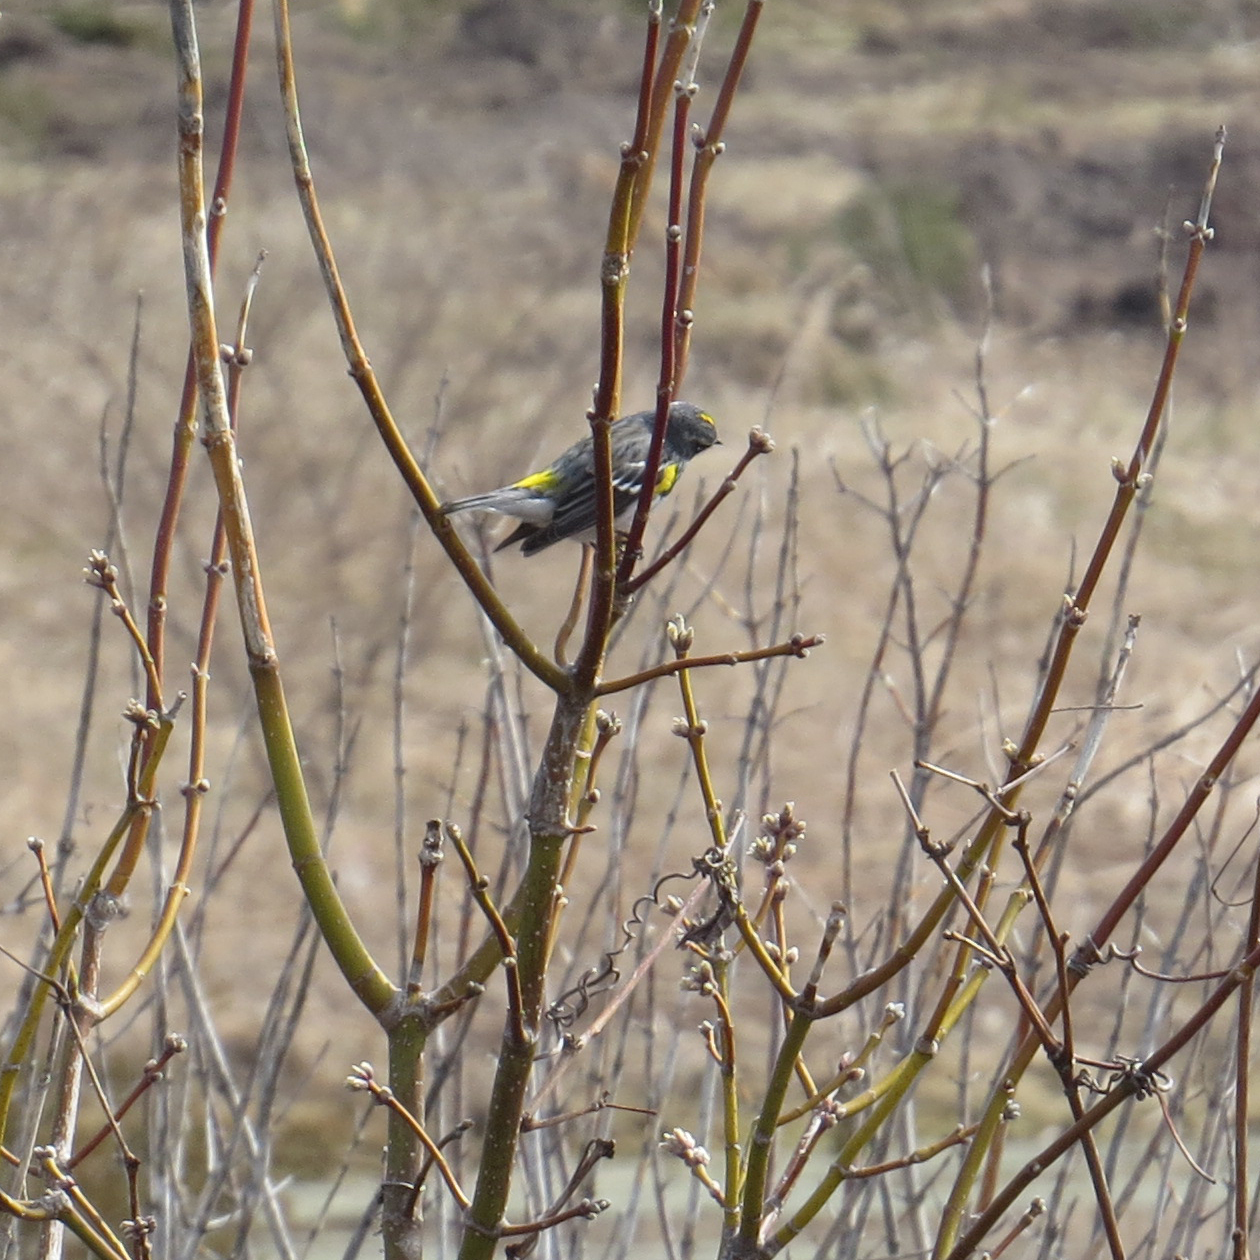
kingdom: Animalia
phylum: Chordata
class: Aves
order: Passeriformes
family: Parulidae
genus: Setophaga
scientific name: Setophaga coronata
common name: Myrtle warbler
